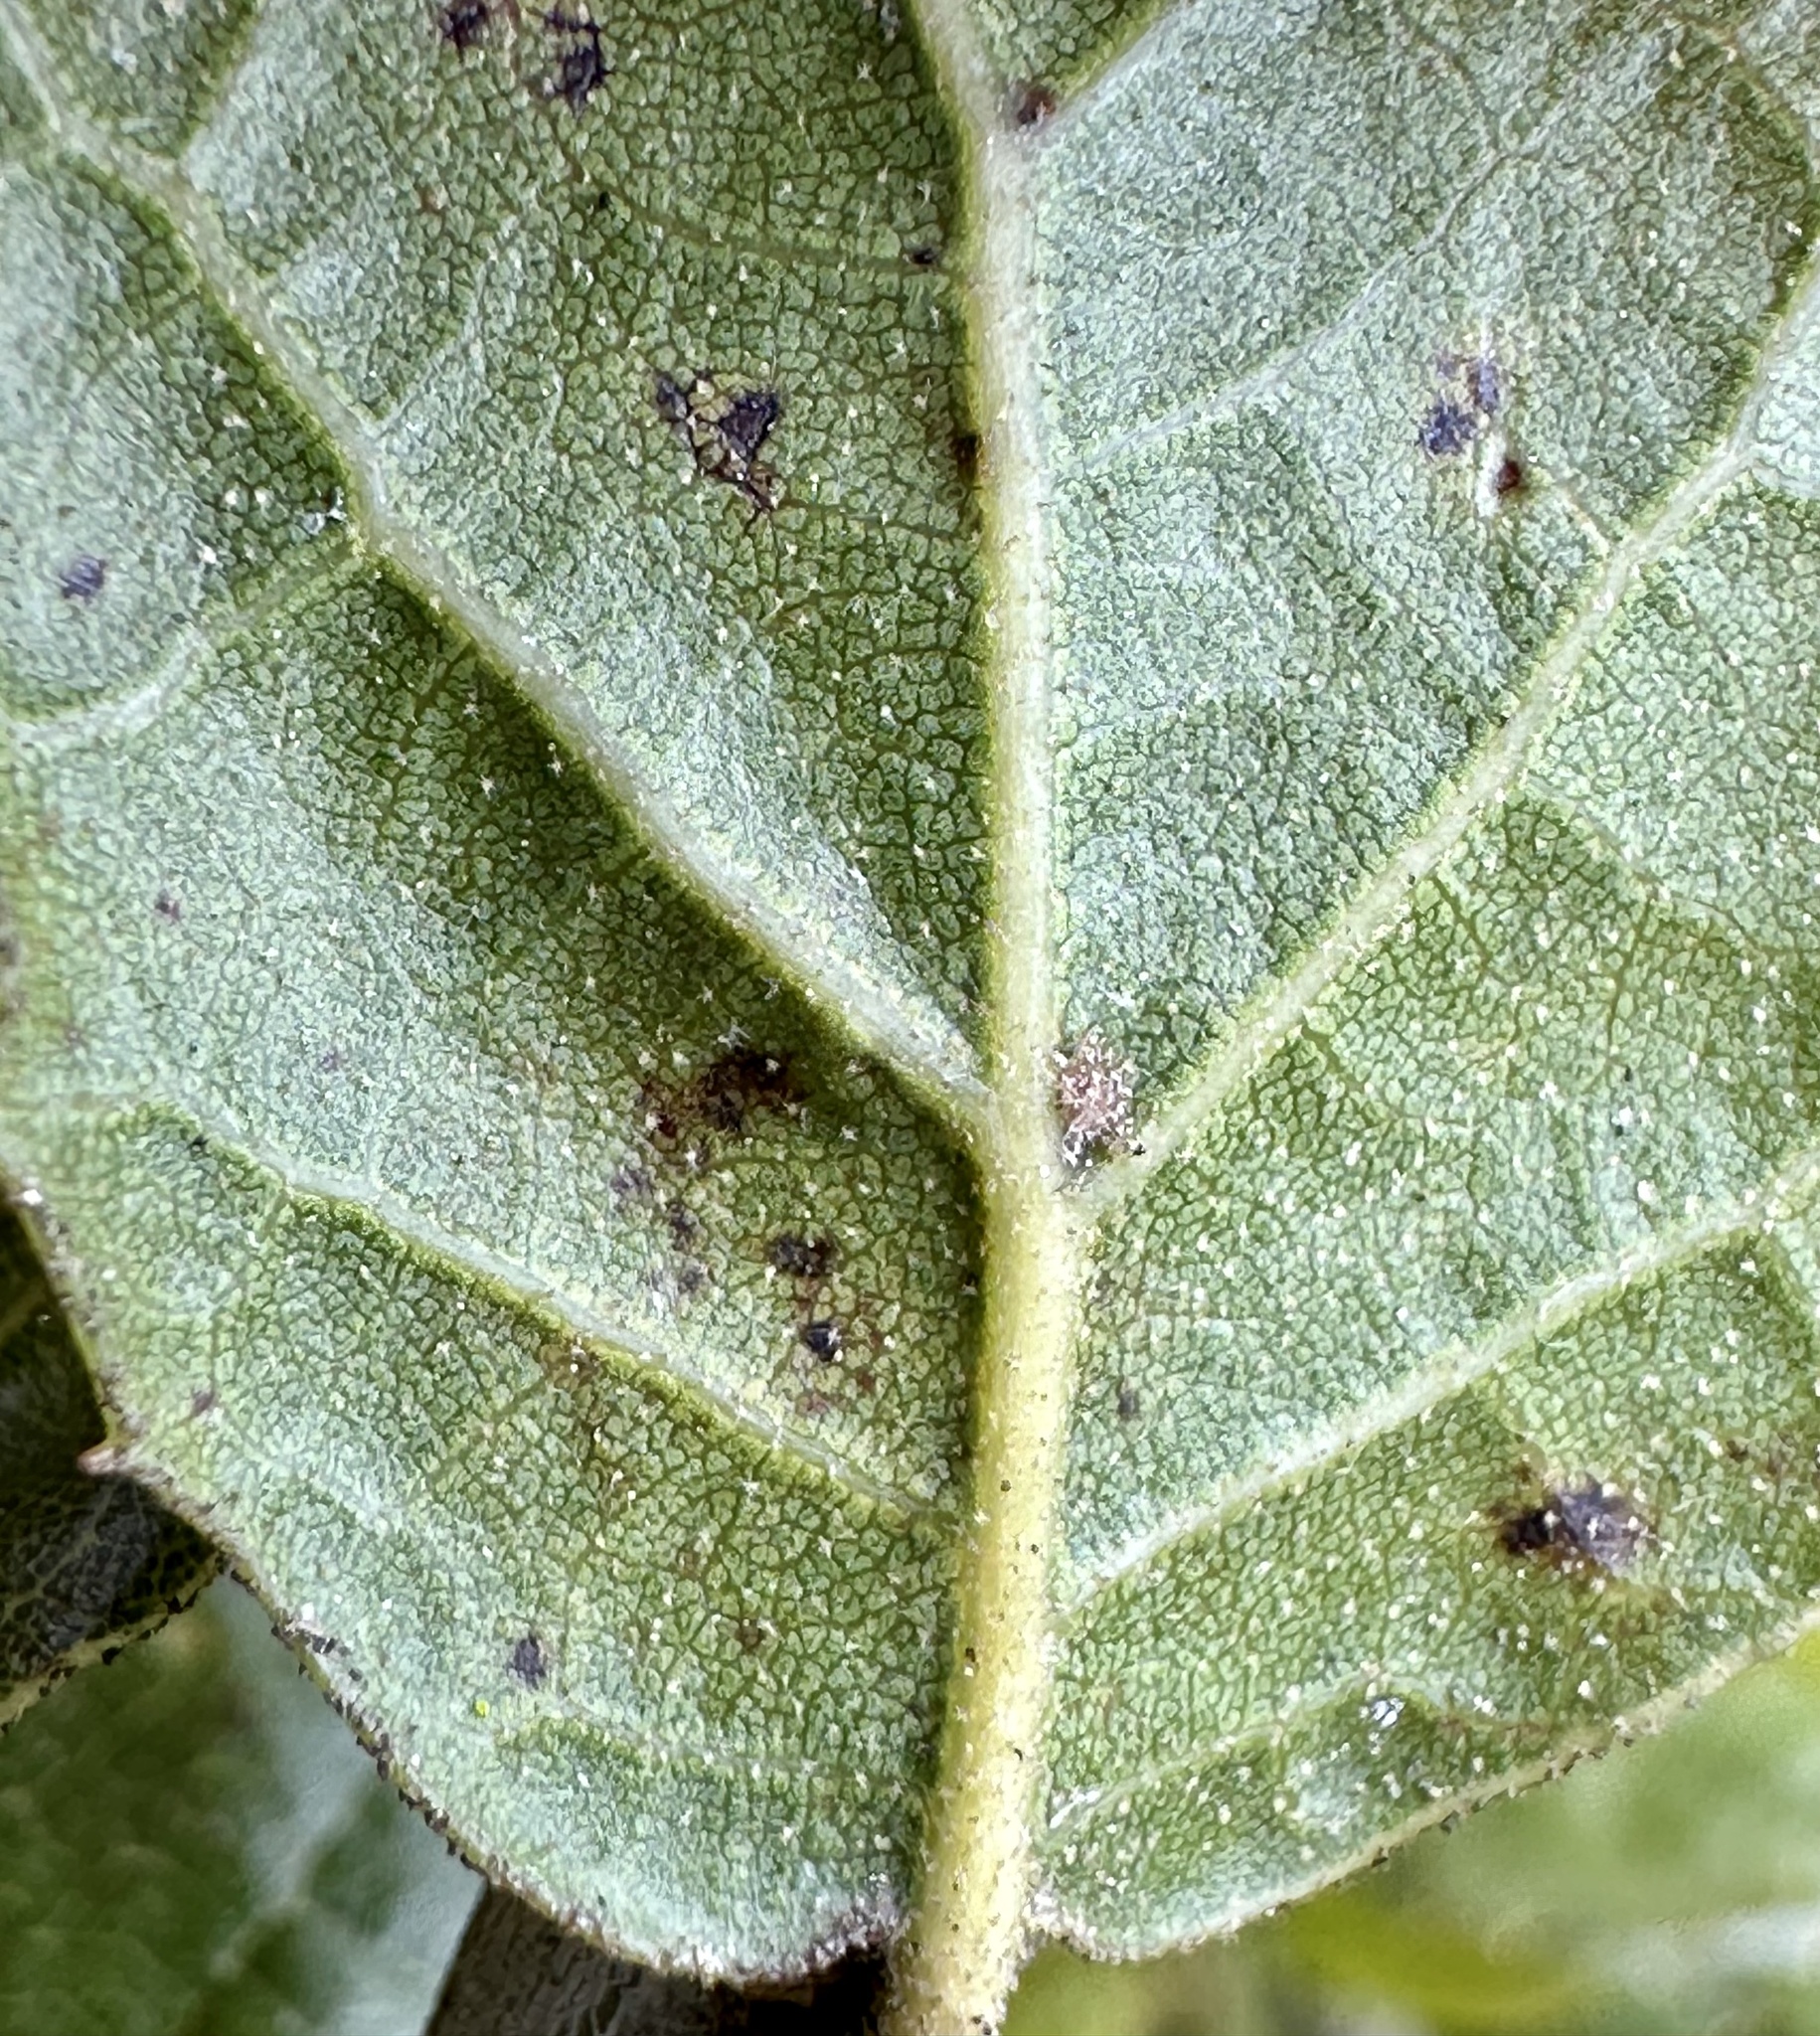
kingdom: Plantae
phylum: Tracheophyta
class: Magnoliopsida
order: Fagales
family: Fagaceae
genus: Quercus
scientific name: Quercus agrifolia
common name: California live oak
